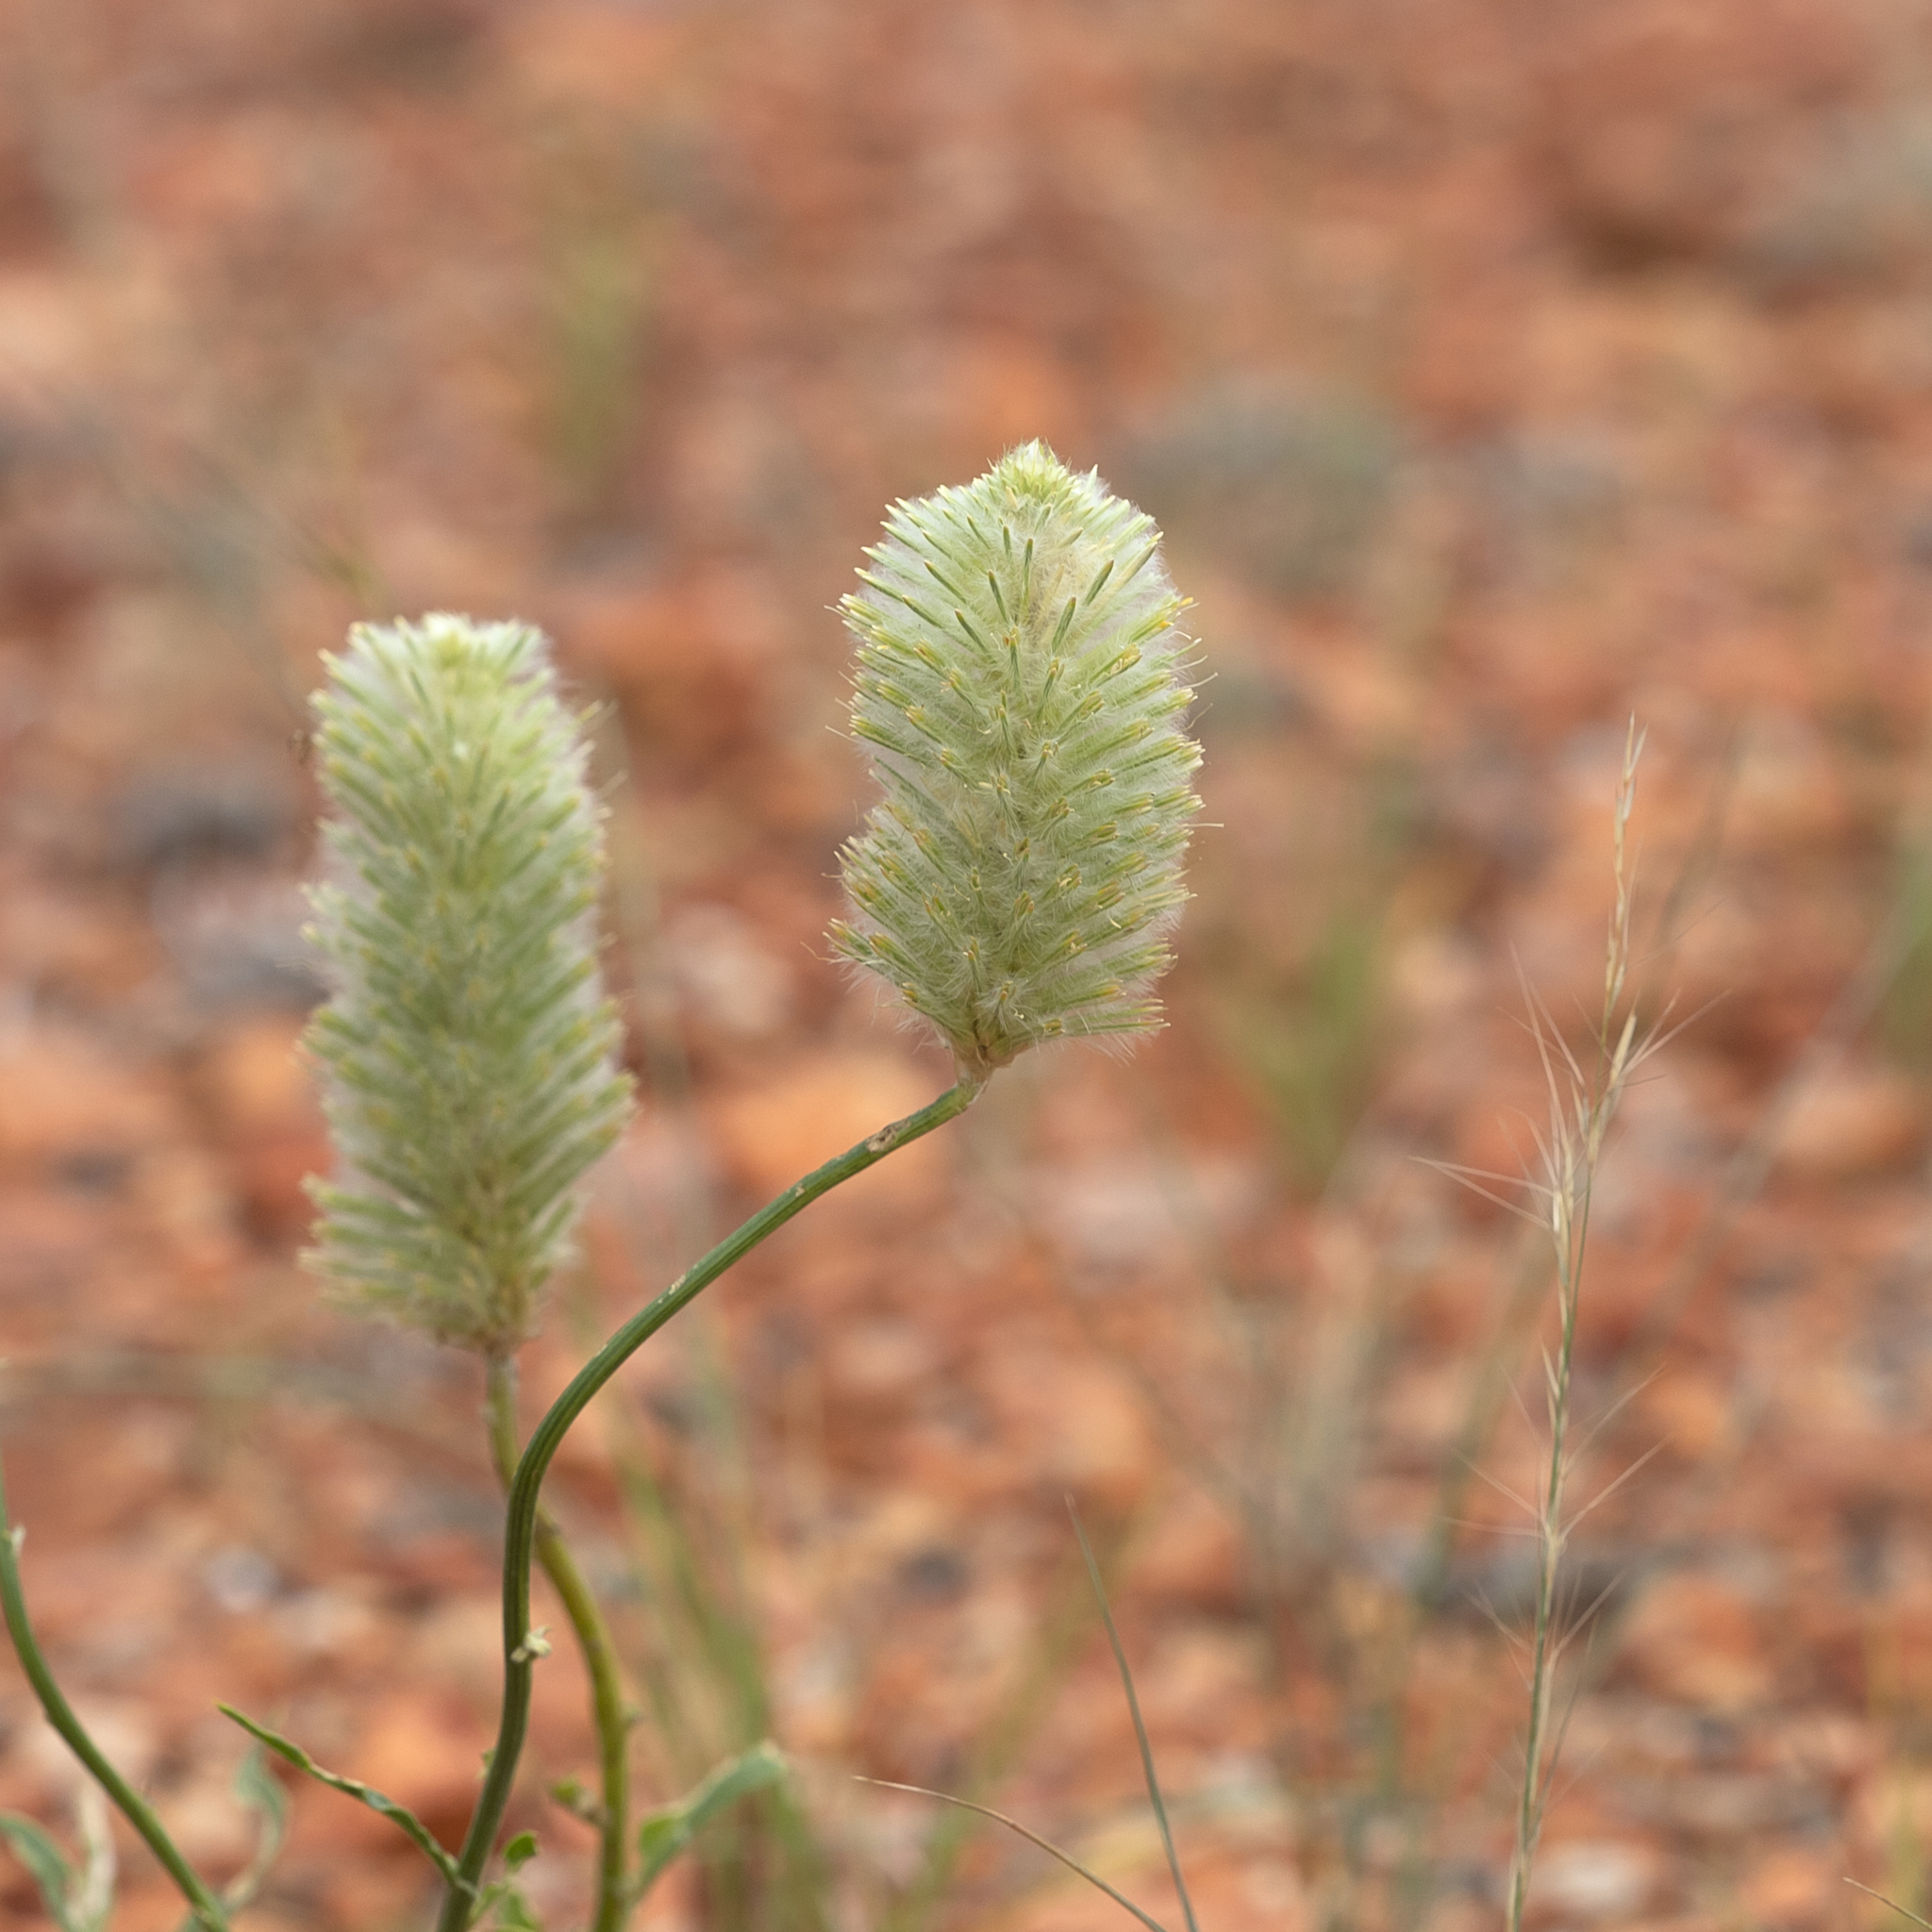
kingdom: Plantae
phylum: Tracheophyta
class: Magnoliopsida
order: Caryophyllales
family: Amaranthaceae
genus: Ptilotus
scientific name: Ptilotus xerophilus
